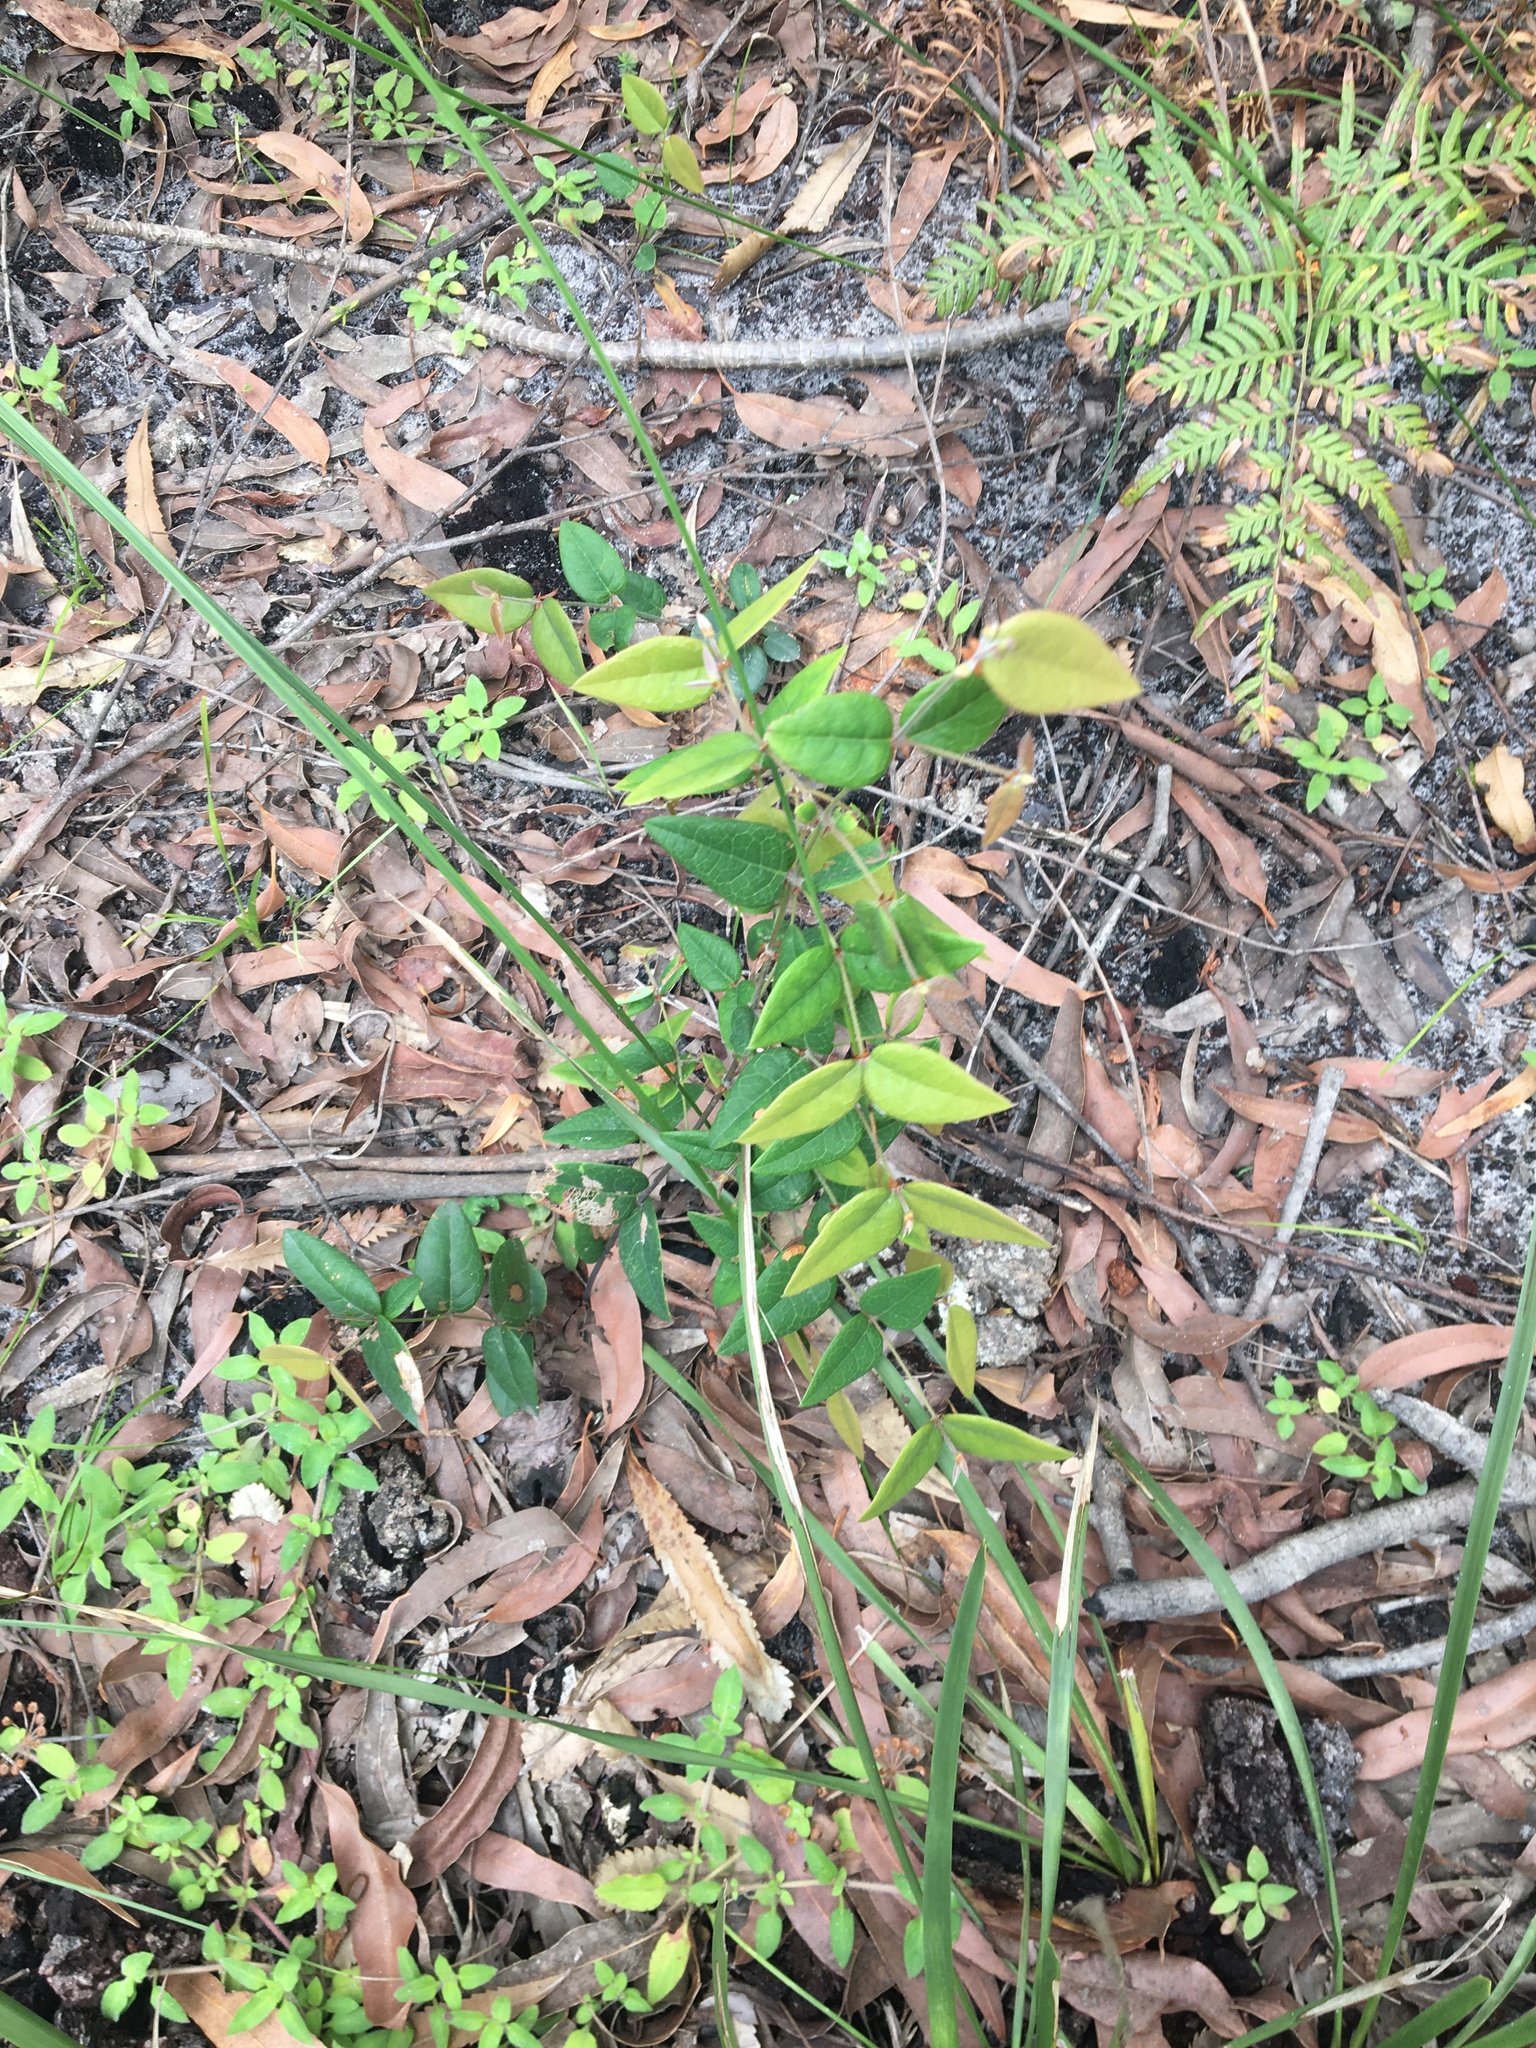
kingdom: Plantae
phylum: Tracheophyta
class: Magnoliopsida
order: Fabales
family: Fabaceae
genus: Platylobium
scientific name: Platylobium formosum
